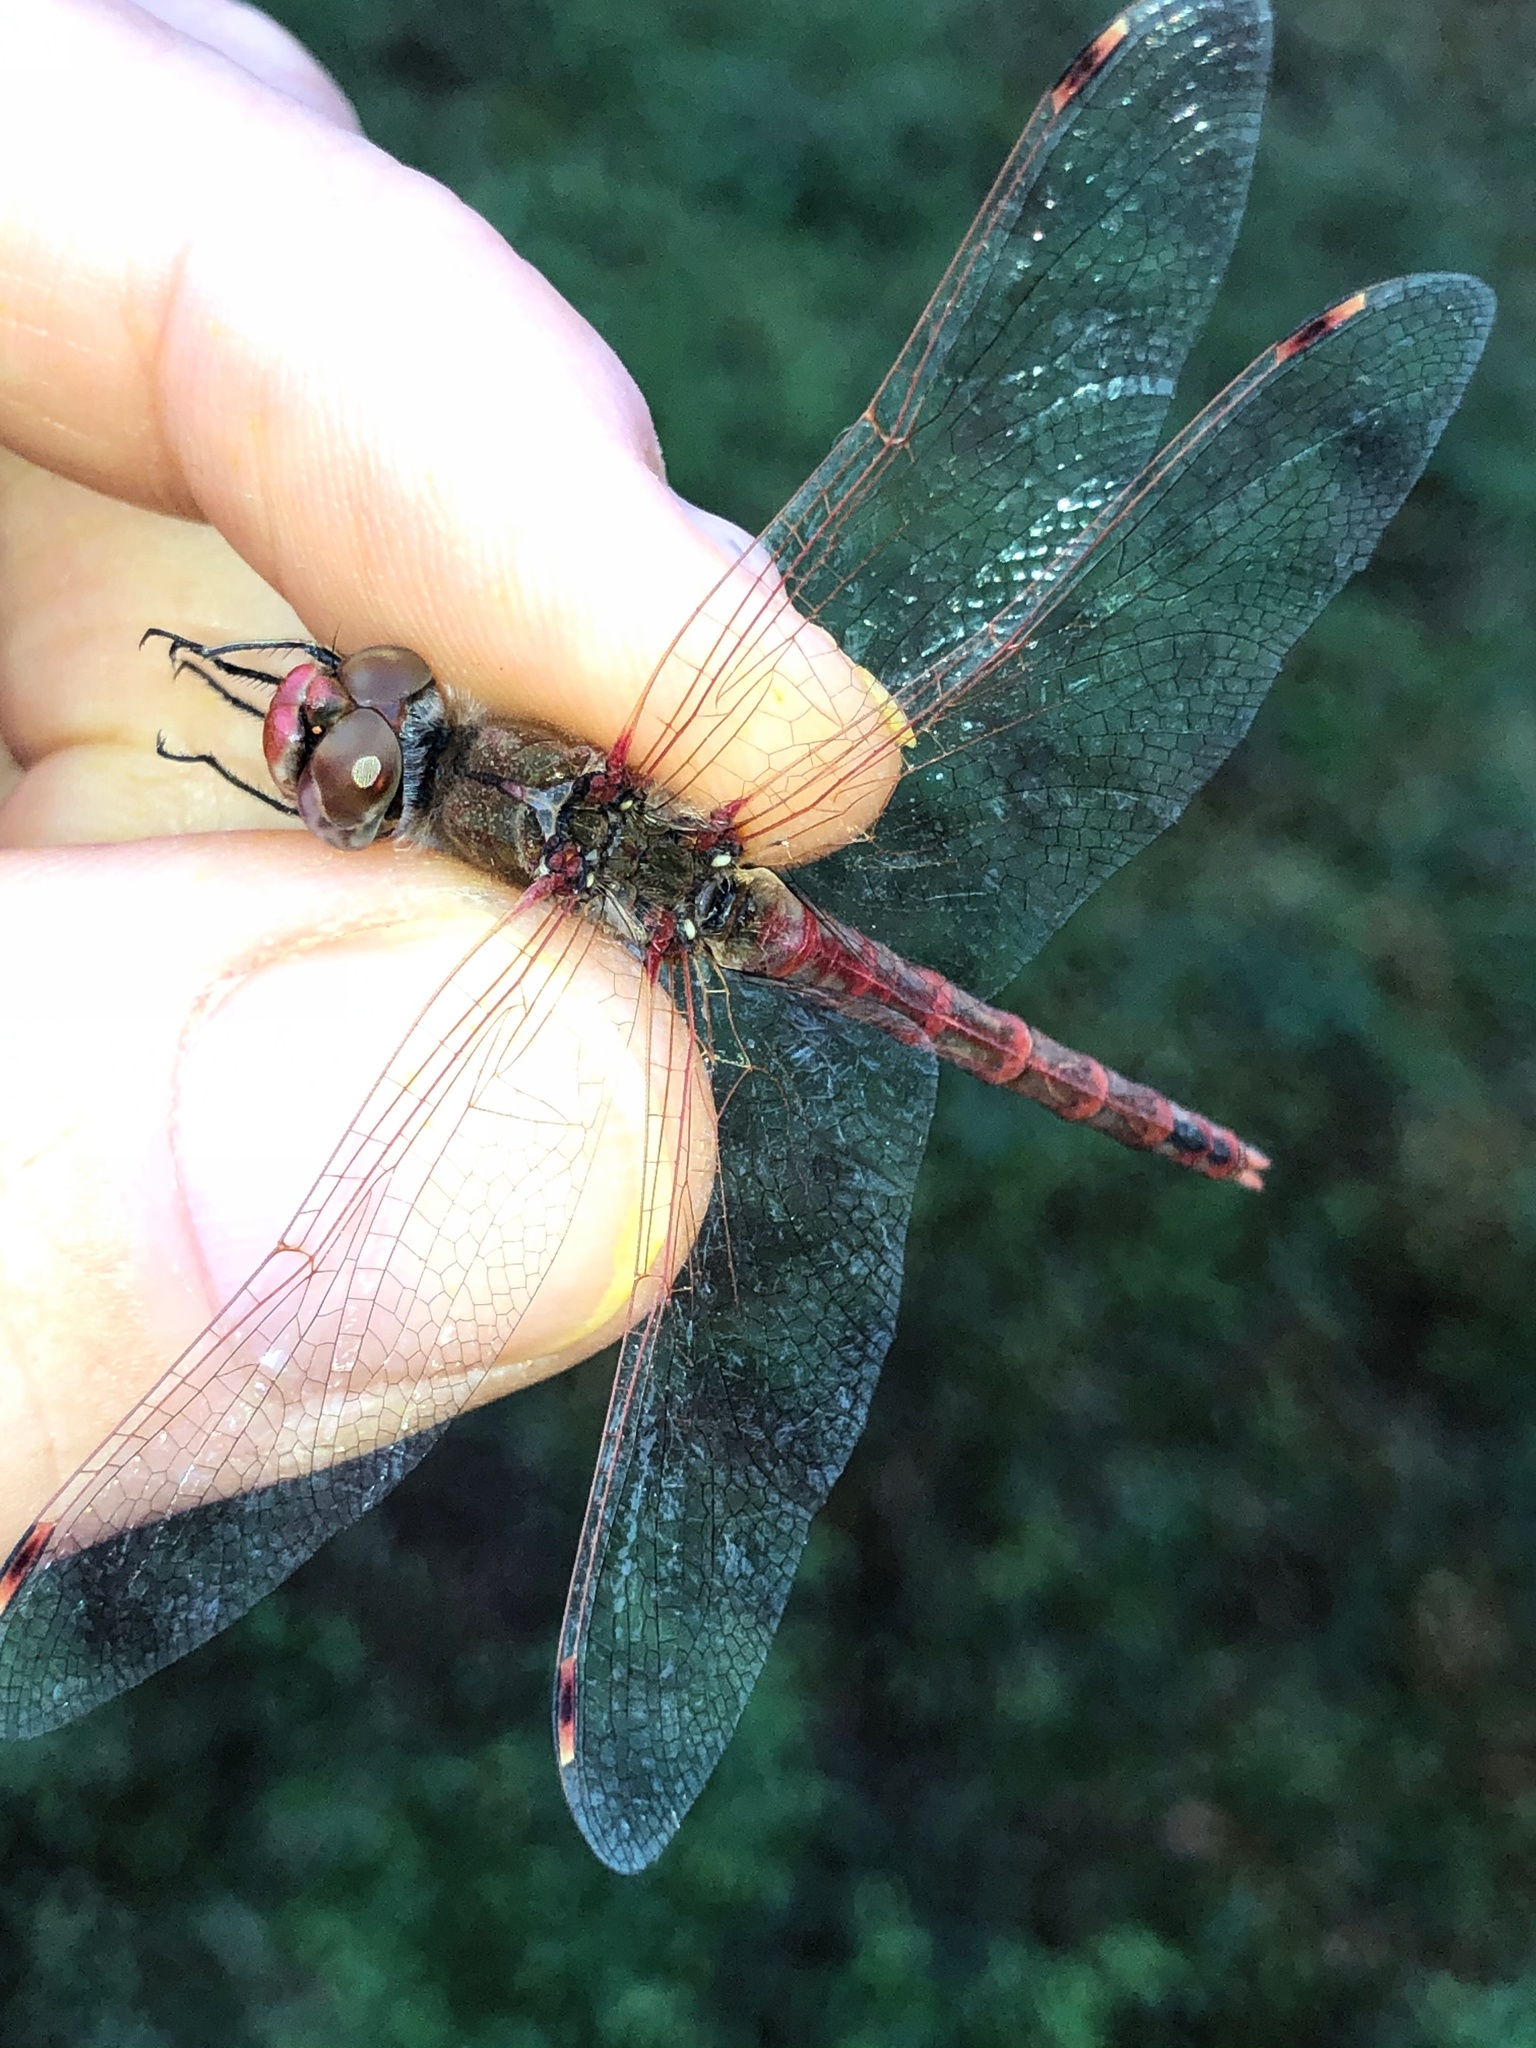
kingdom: Animalia
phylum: Arthropoda
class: Insecta
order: Odonata
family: Libellulidae
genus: Sympetrum
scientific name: Sympetrum corruptum
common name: Variegated meadowhawk
